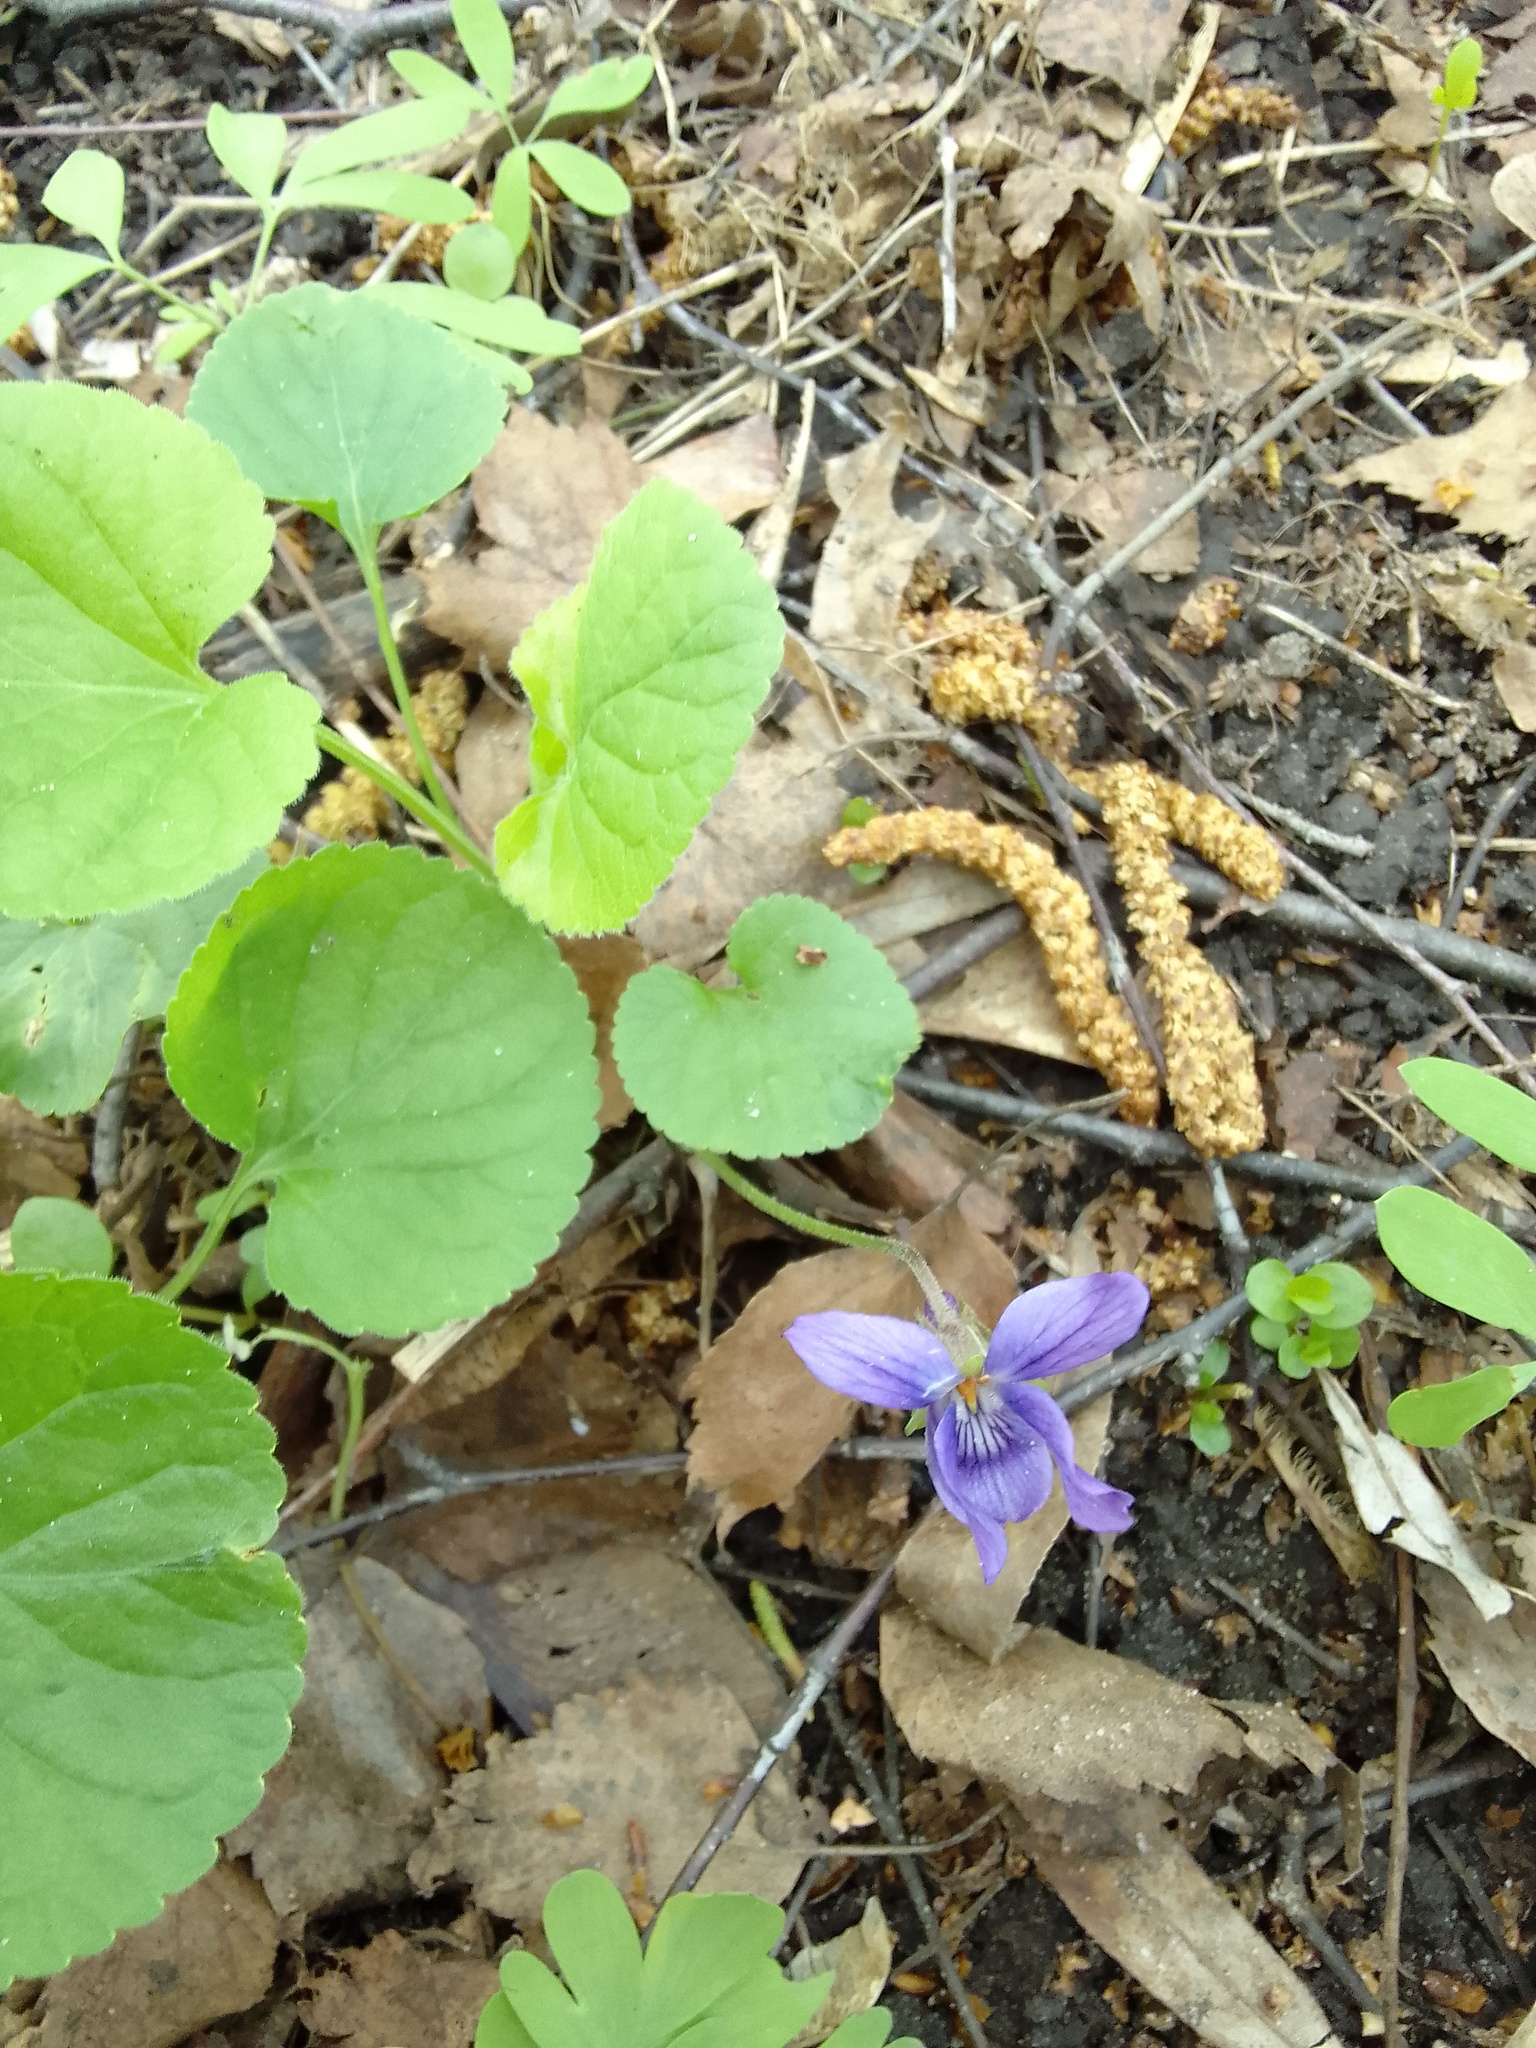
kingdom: Plantae
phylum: Tracheophyta
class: Magnoliopsida
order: Malpighiales
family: Violaceae
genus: Viola
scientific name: Viola odorata
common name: Sweet violet
